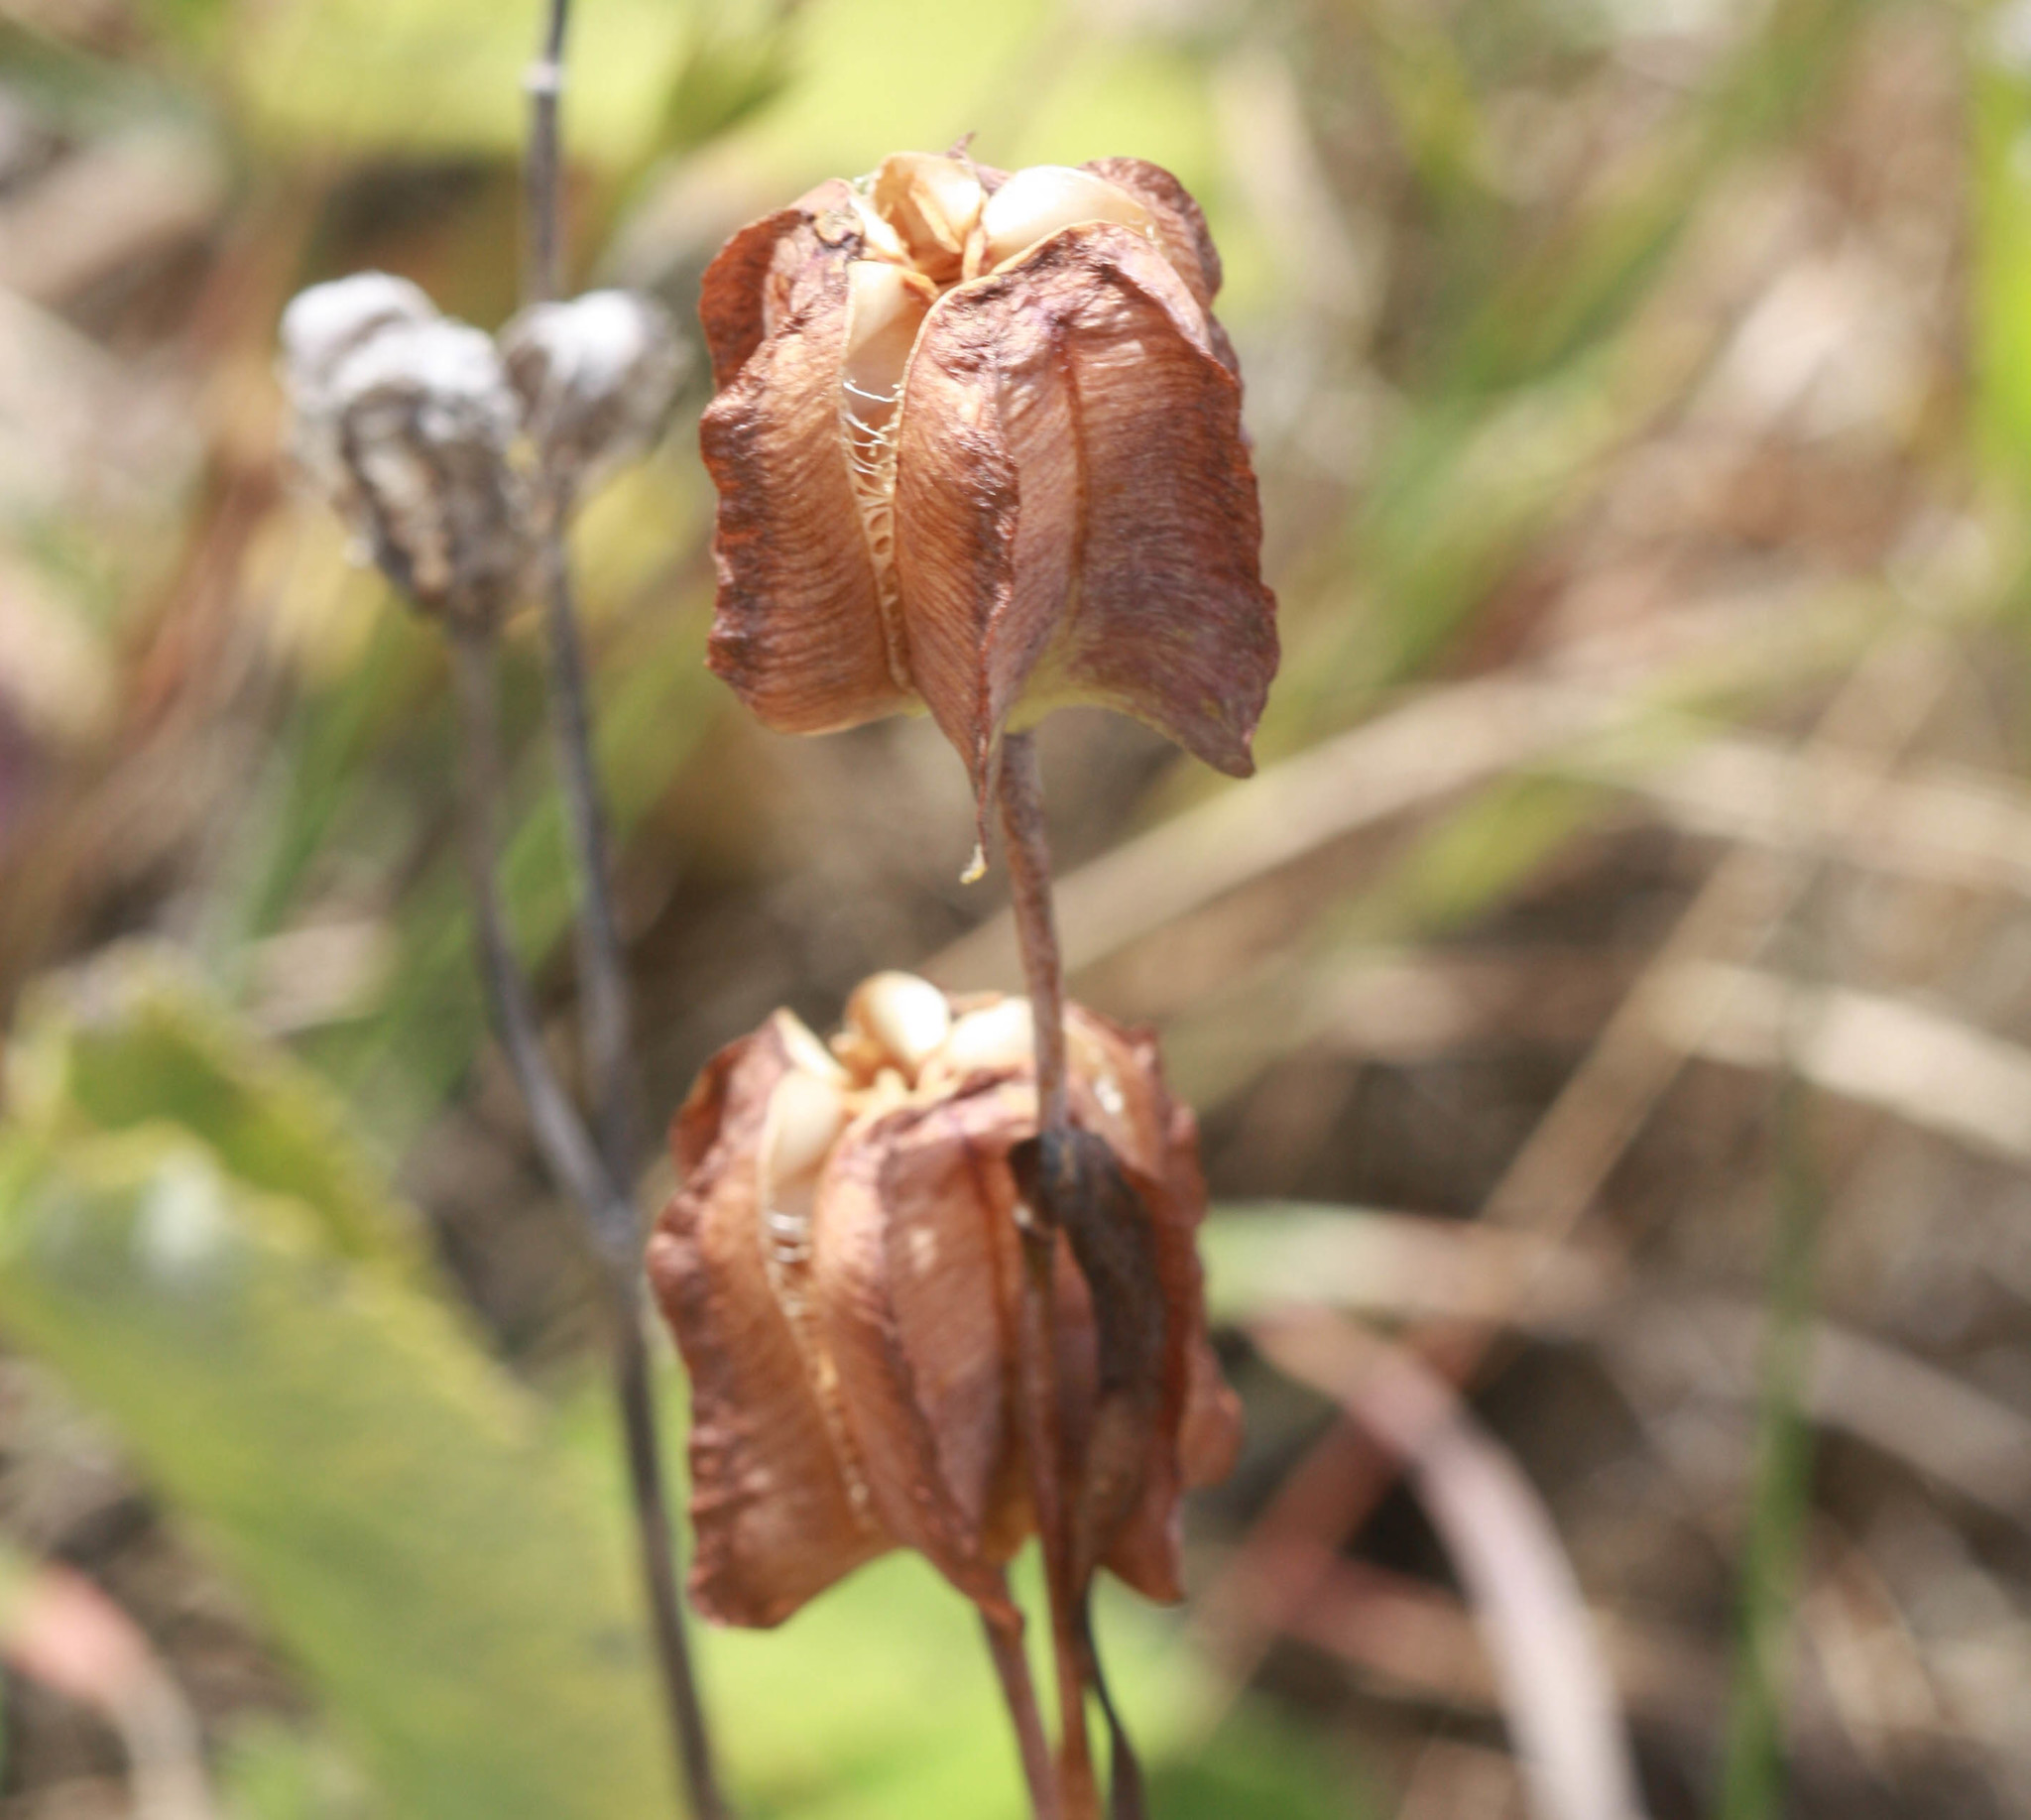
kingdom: Plantae
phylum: Tracheophyta
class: Liliopsida
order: Liliales
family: Liliaceae
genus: Fritillaria
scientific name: Fritillaria affinis
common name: Ojai fritillary
